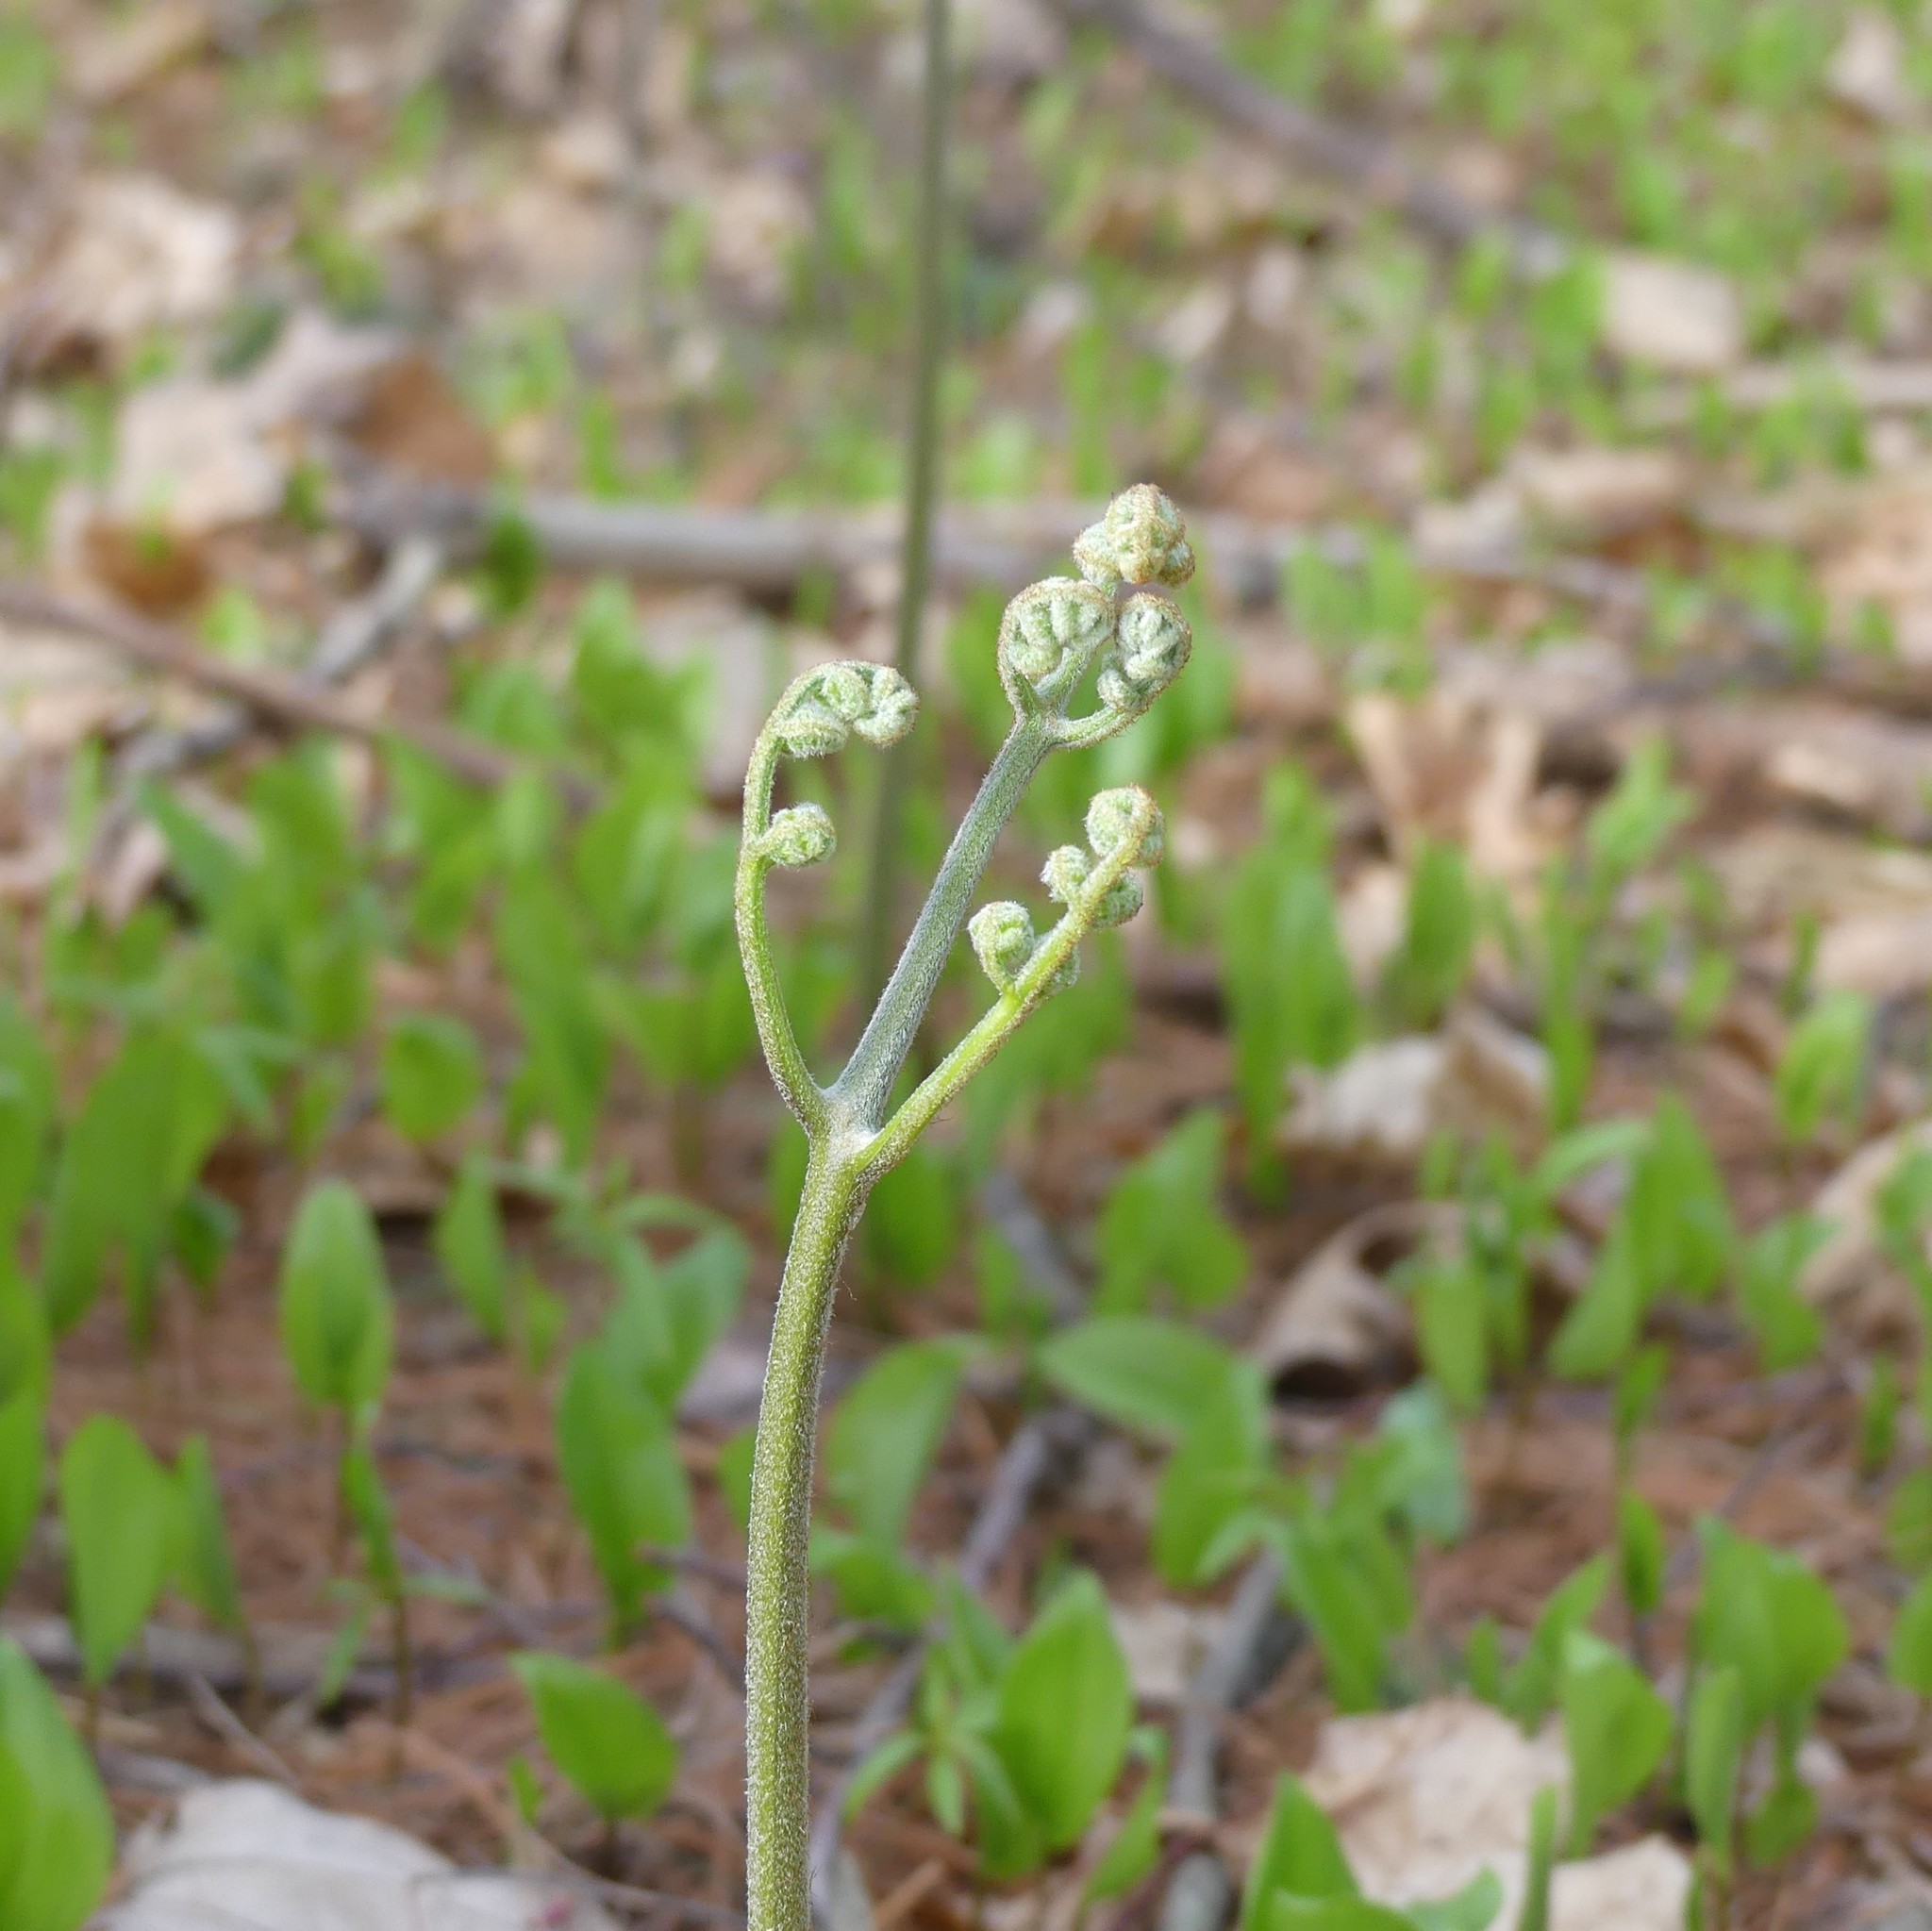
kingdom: Plantae
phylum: Tracheophyta
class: Polypodiopsida
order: Polypodiales
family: Dennstaedtiaceae
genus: Pteridium
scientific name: Pteridium aquilinum
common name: Bracken
